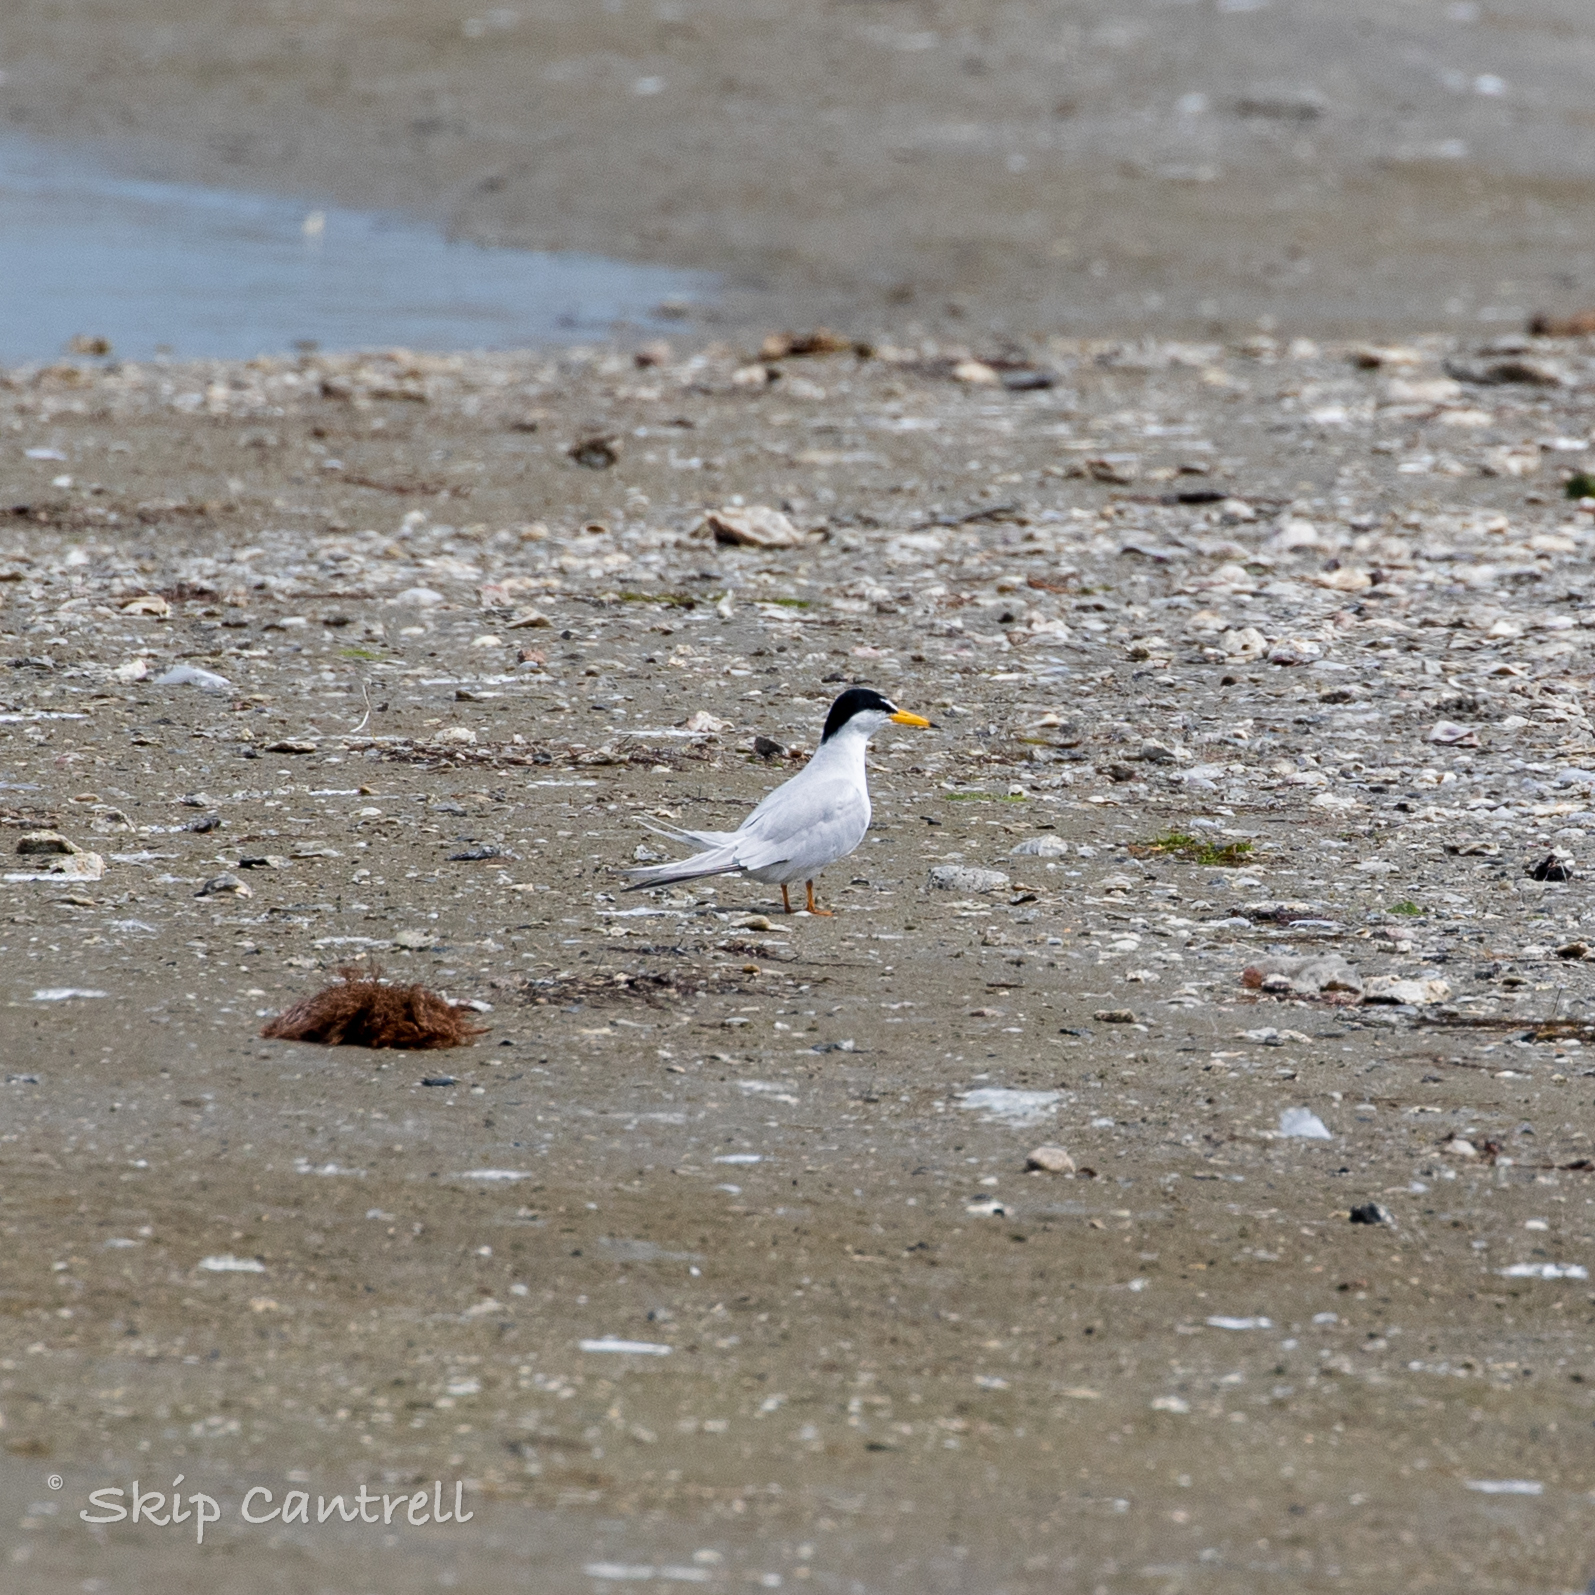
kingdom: Animalia
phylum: Chordata
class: Aves
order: Charadriiformes
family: Laridae
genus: Sternula
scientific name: Sternula antillarum
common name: Least tern
